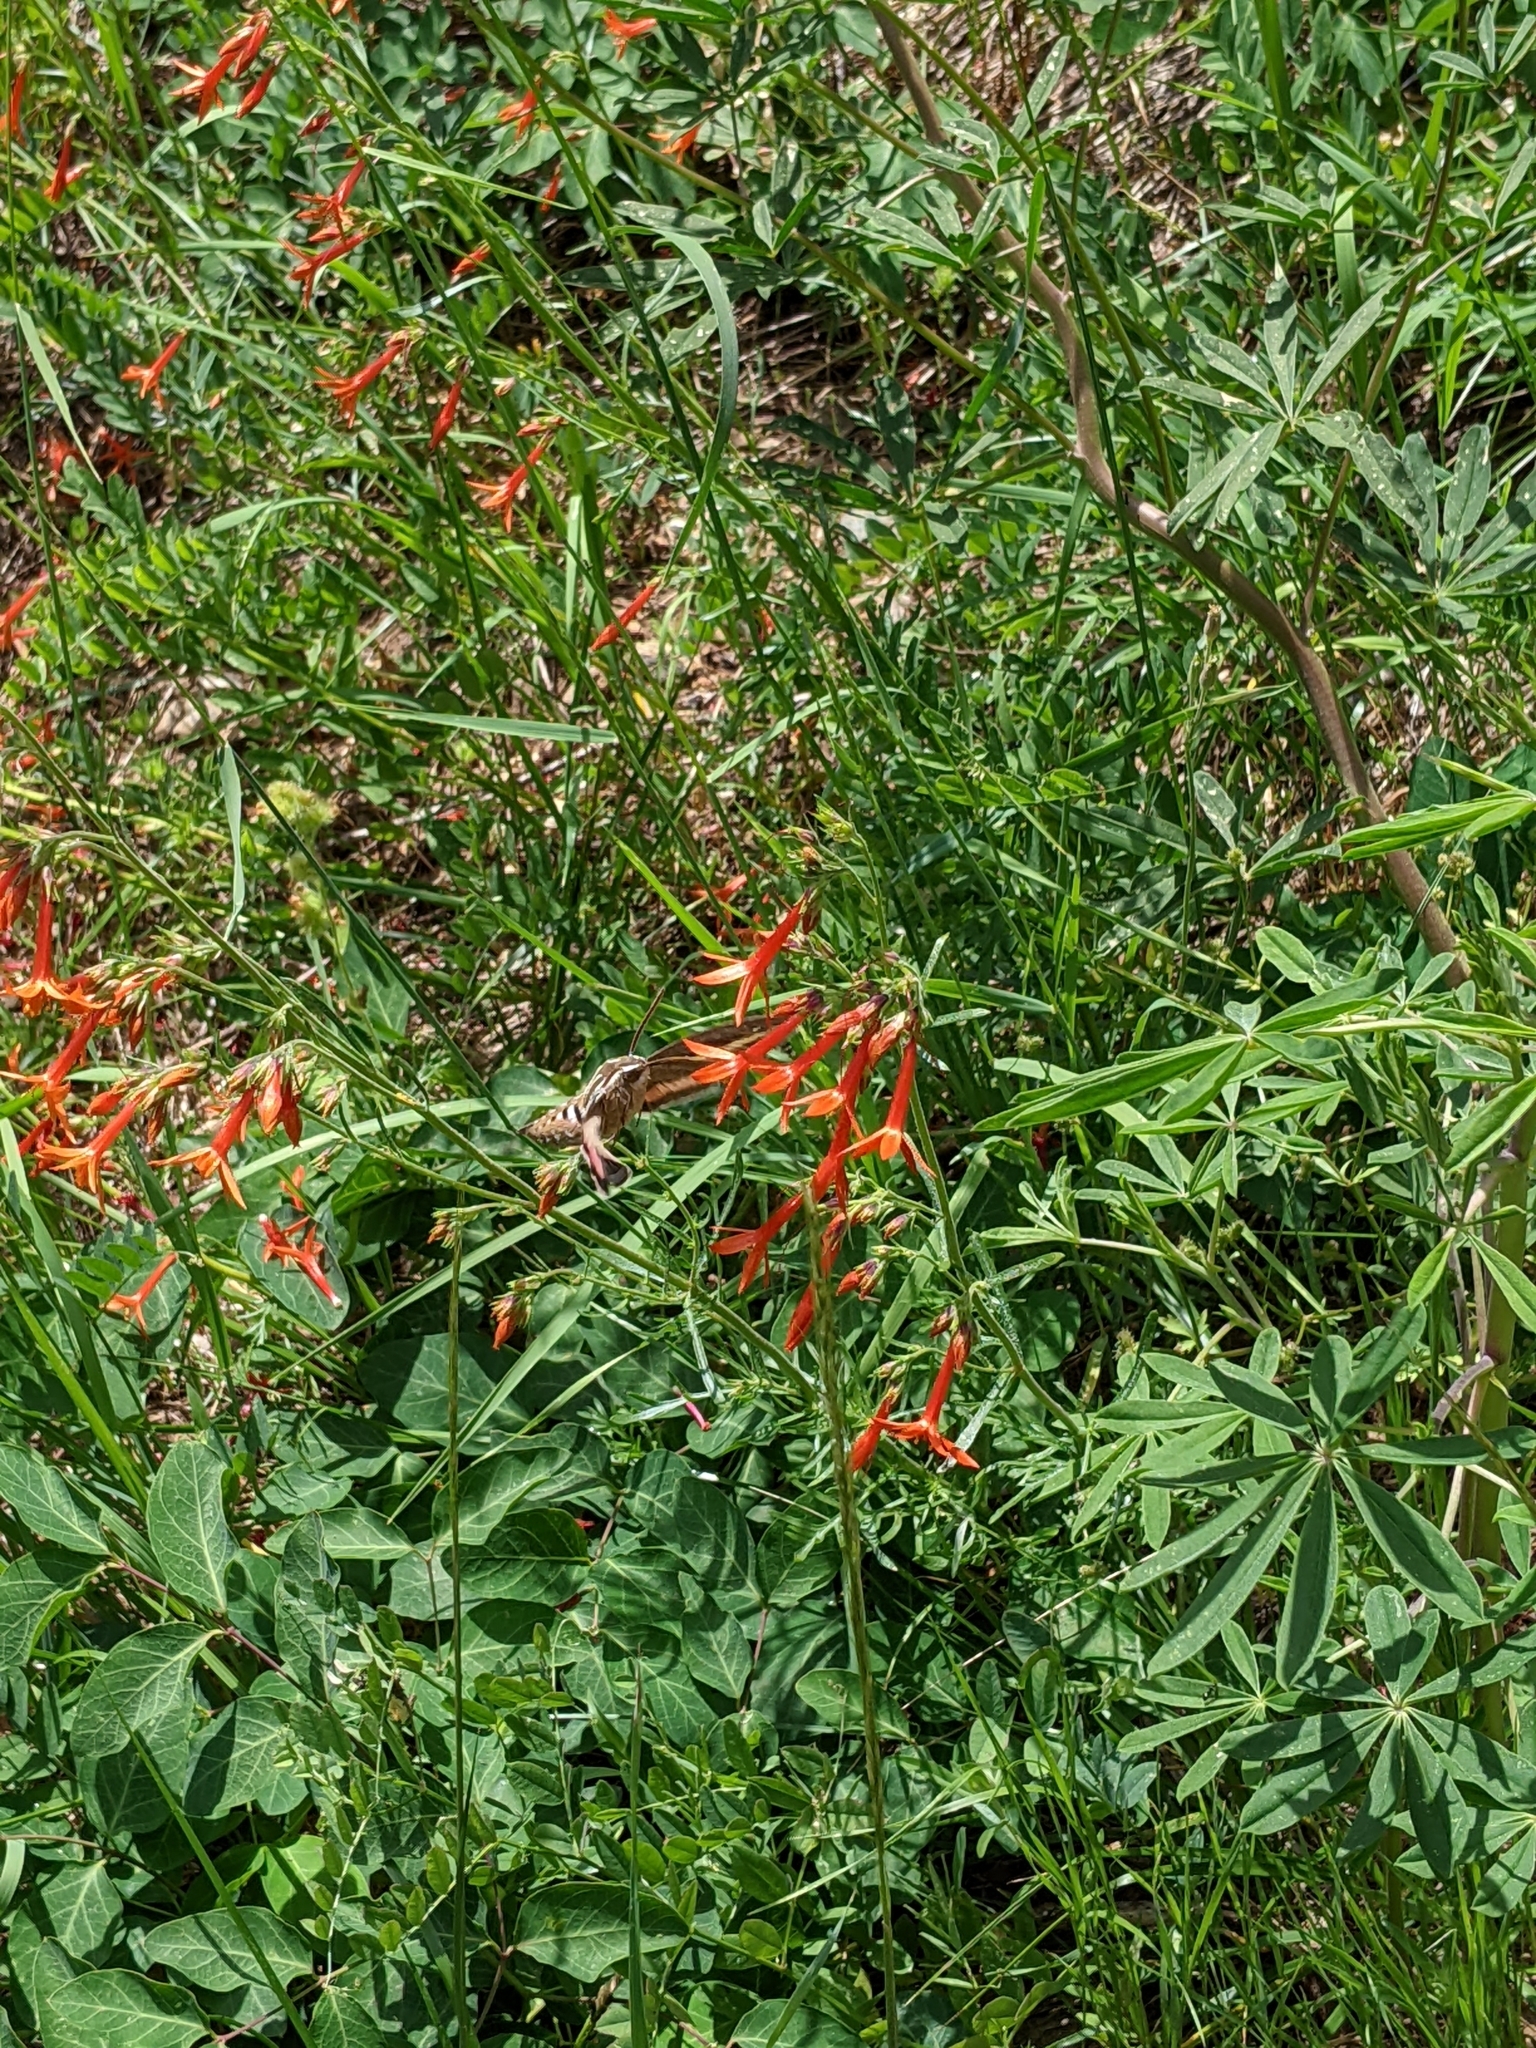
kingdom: Animalia
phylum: Arthropoda
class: Insecta
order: Lepidoptera
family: Sphingidae
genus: Hyles
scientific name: Hyles lineata
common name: White-lined sphinx
